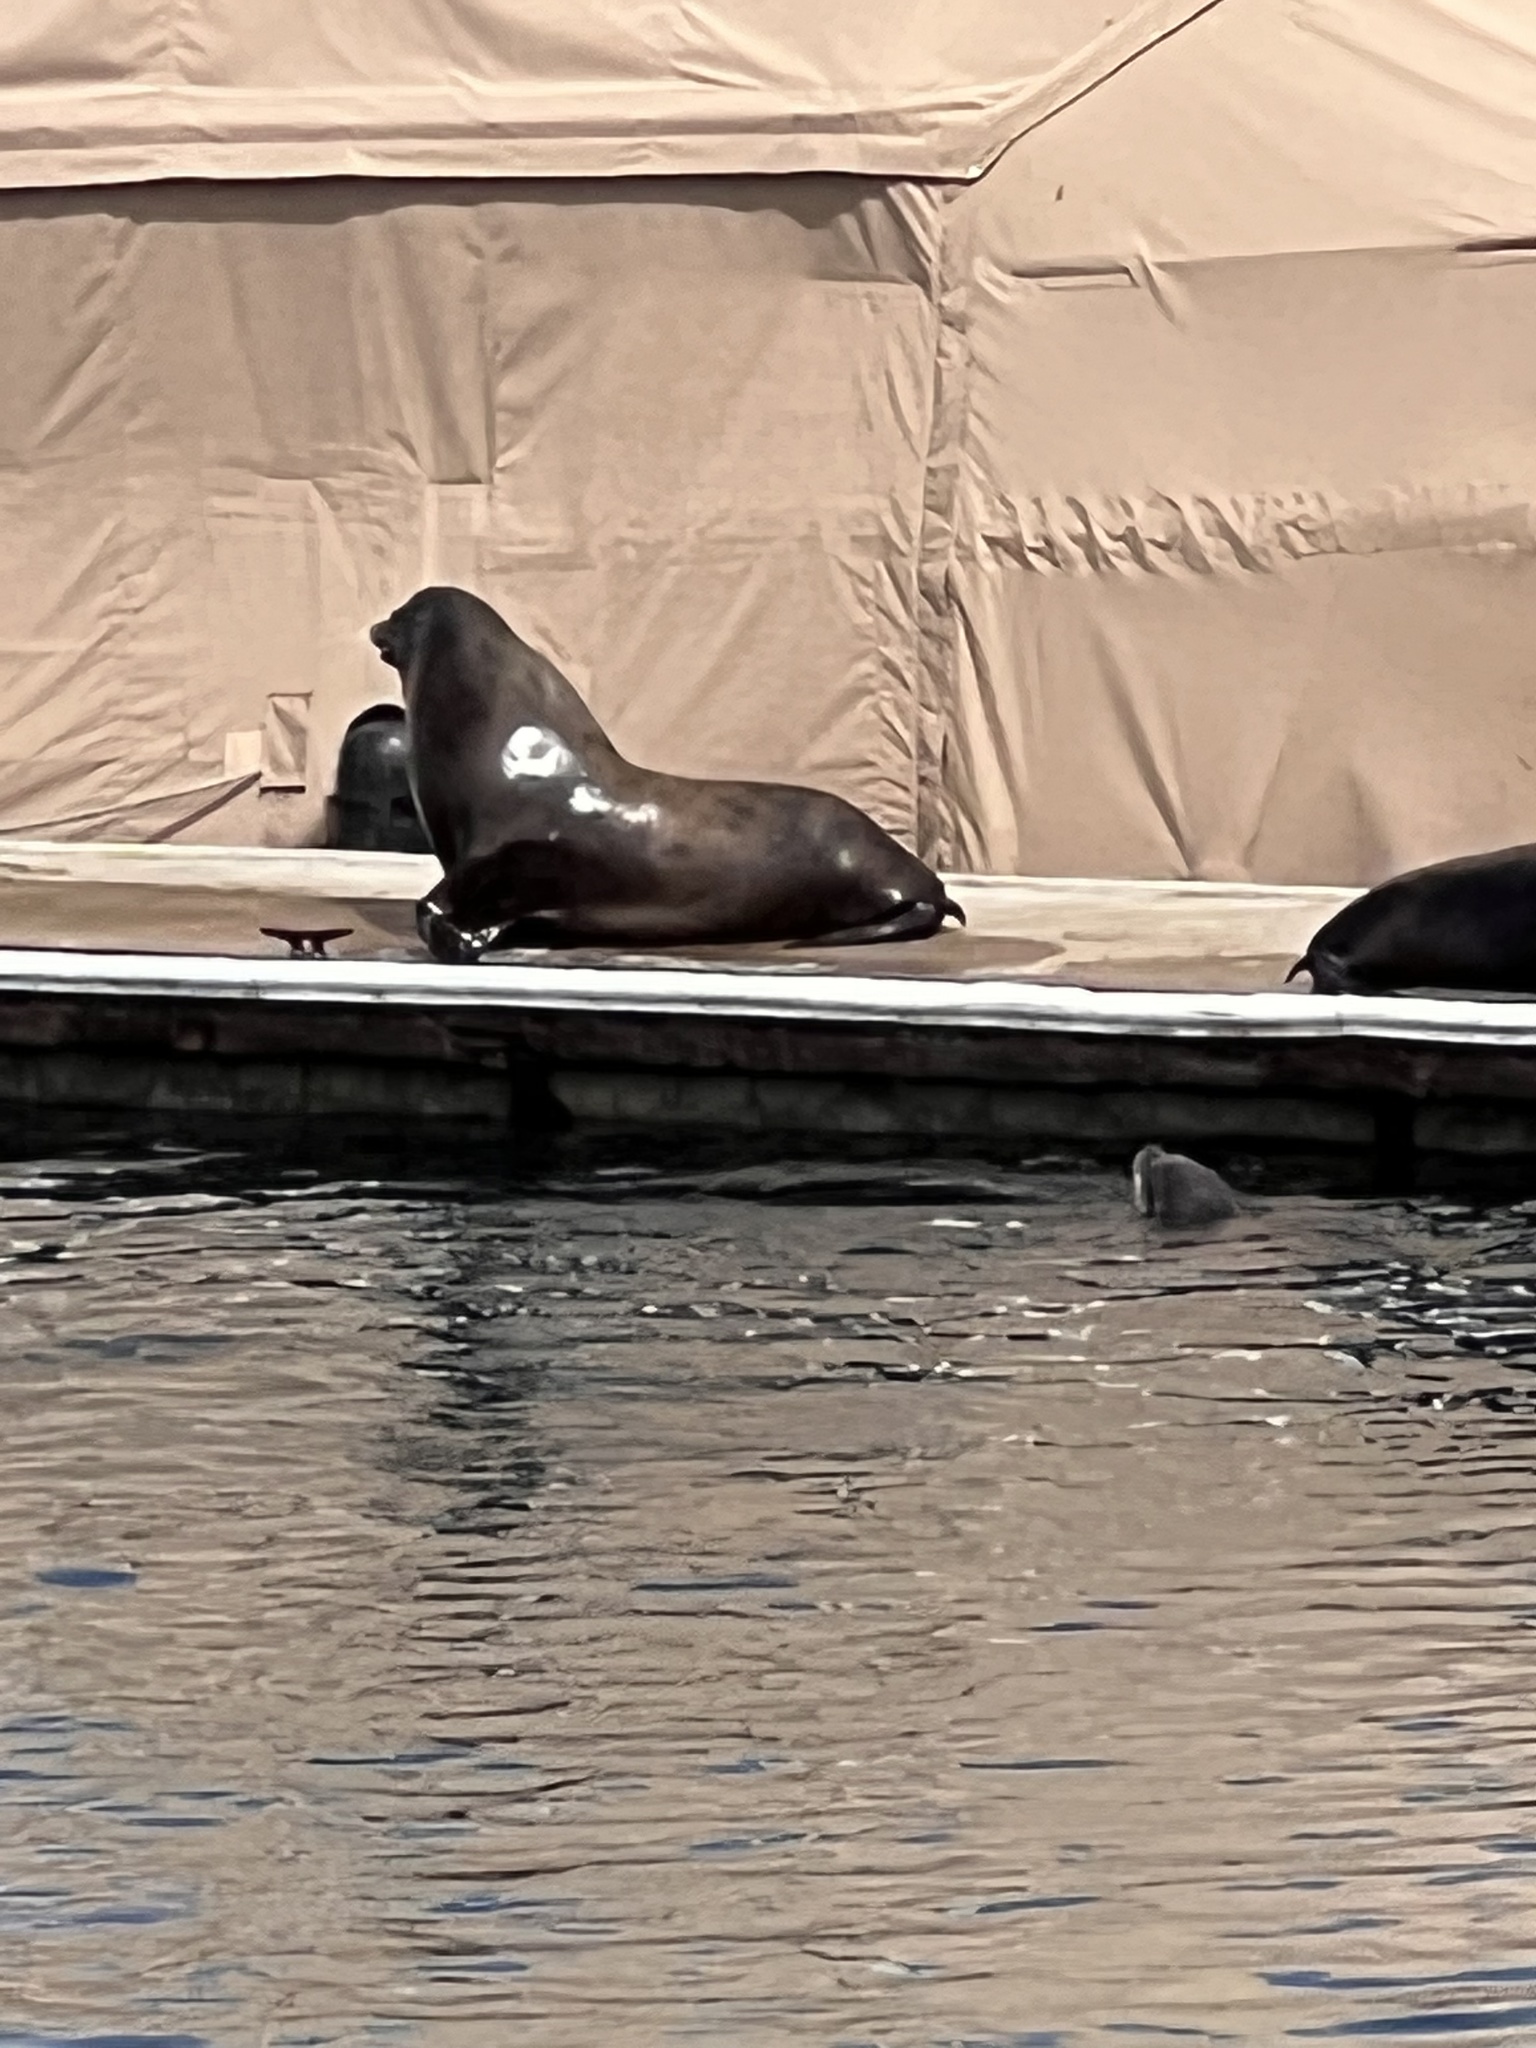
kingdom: Animalia
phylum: Chordata
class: Mammalia
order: Carnivora
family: Otariidae
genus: Zalophus
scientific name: Zalophus californianus
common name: California sea lion
